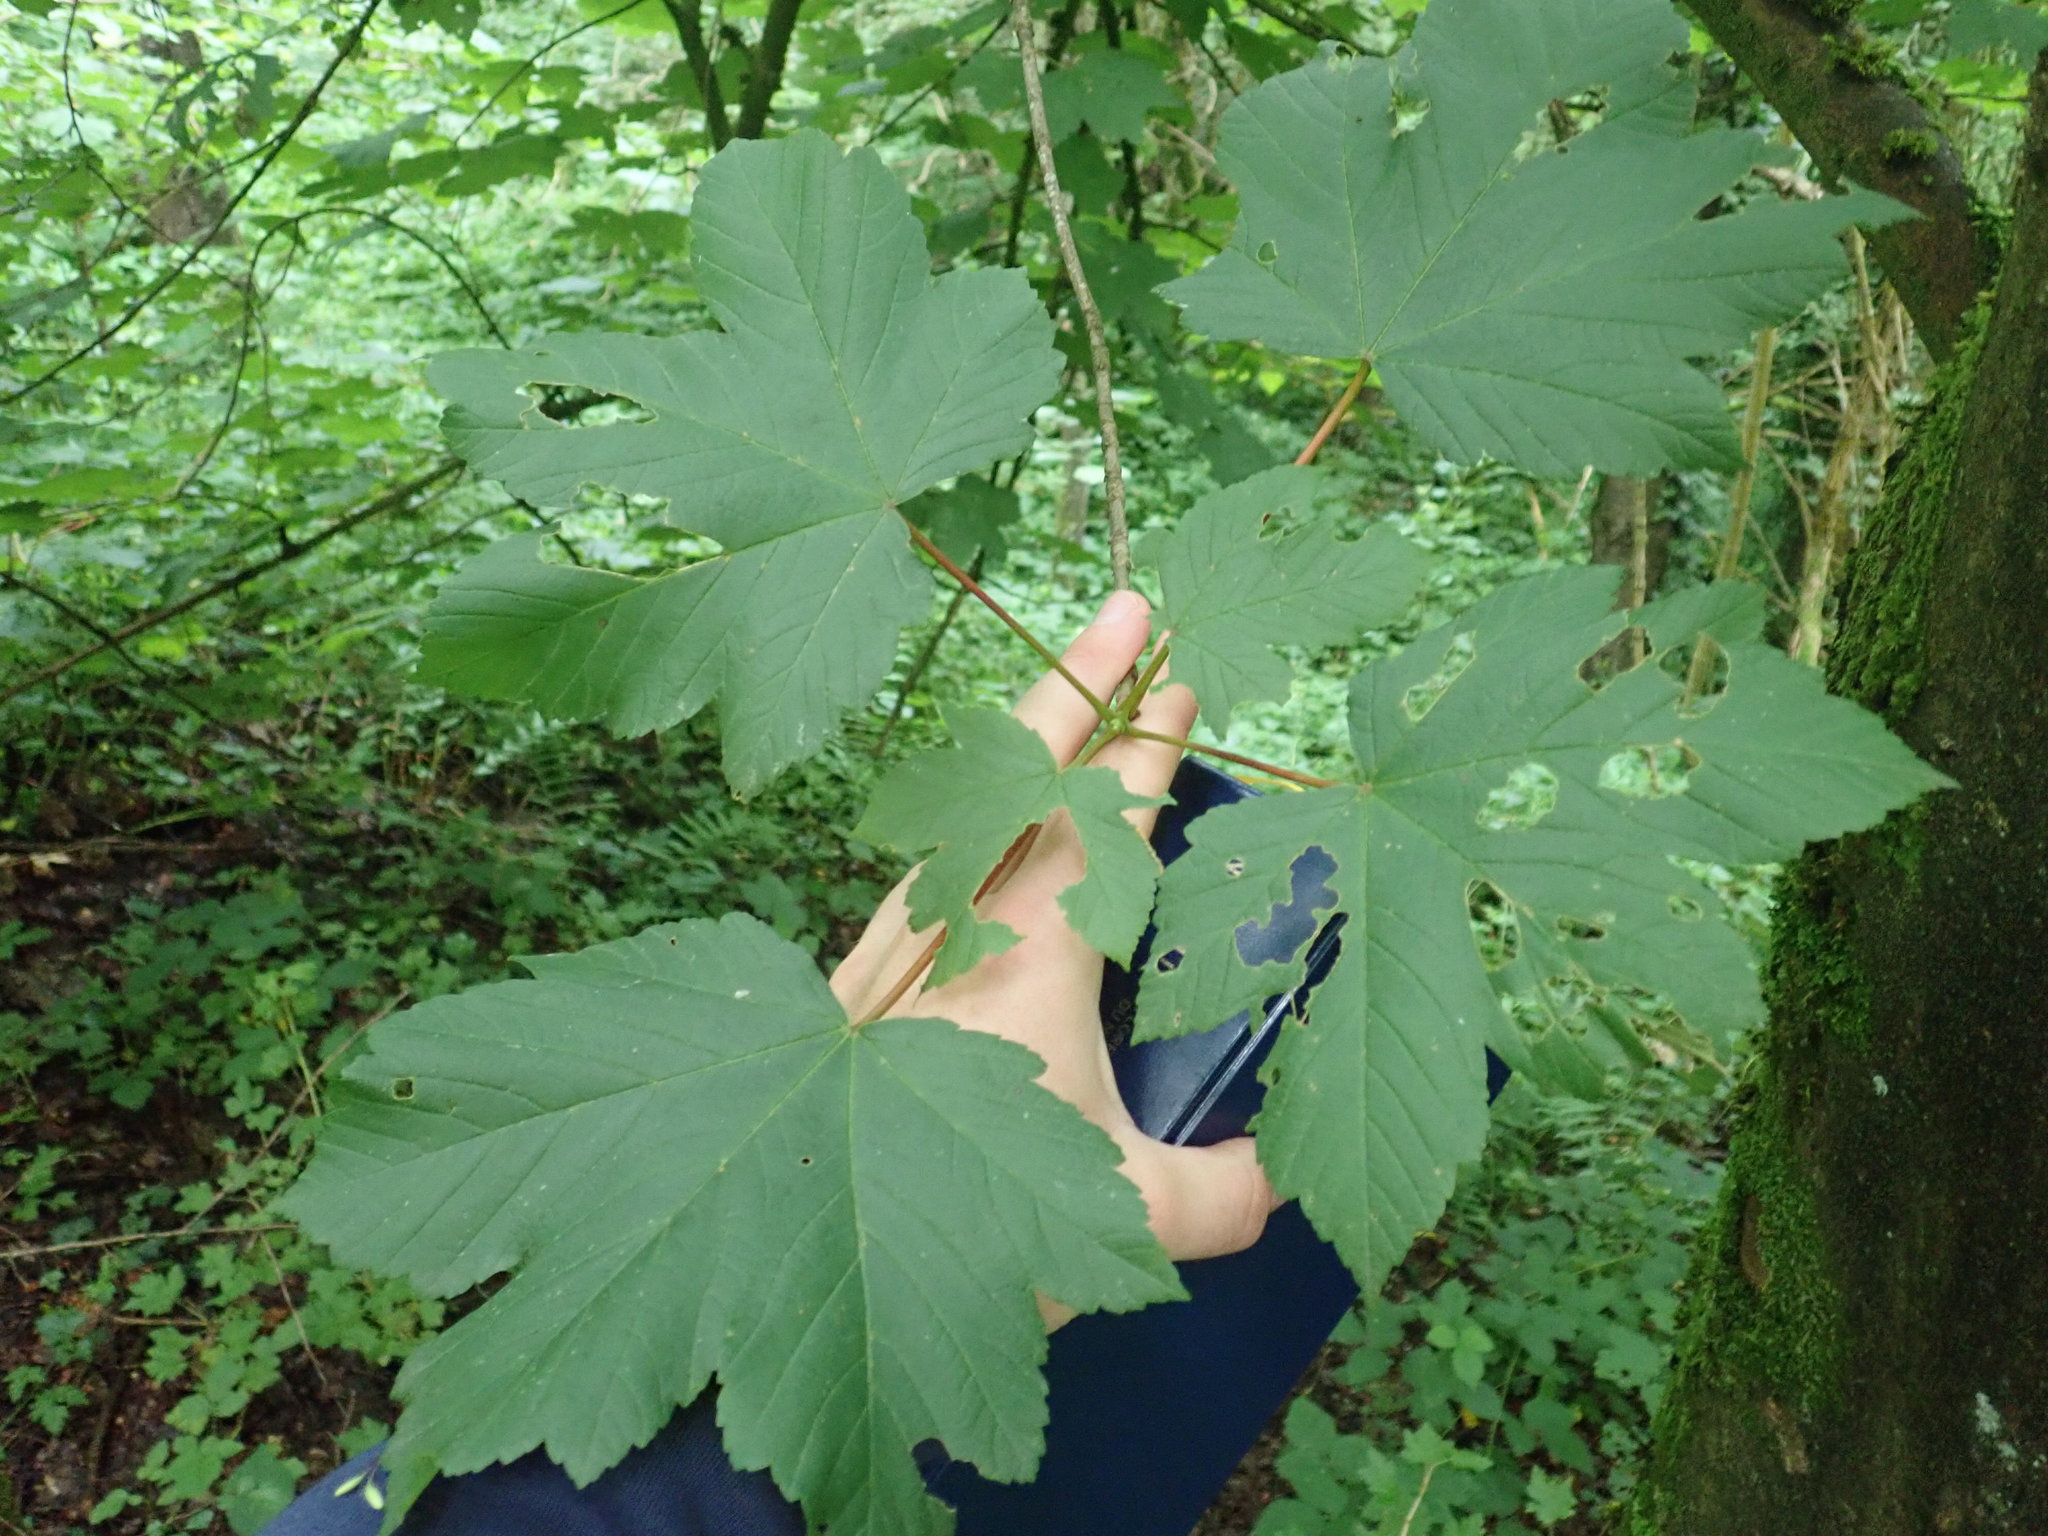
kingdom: Plantae
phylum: Tracheophyta
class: Magnoliopsida
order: Sapindales
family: Sapindaceae
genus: Acer
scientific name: Acer pseudoplatanus
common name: Sycamore
